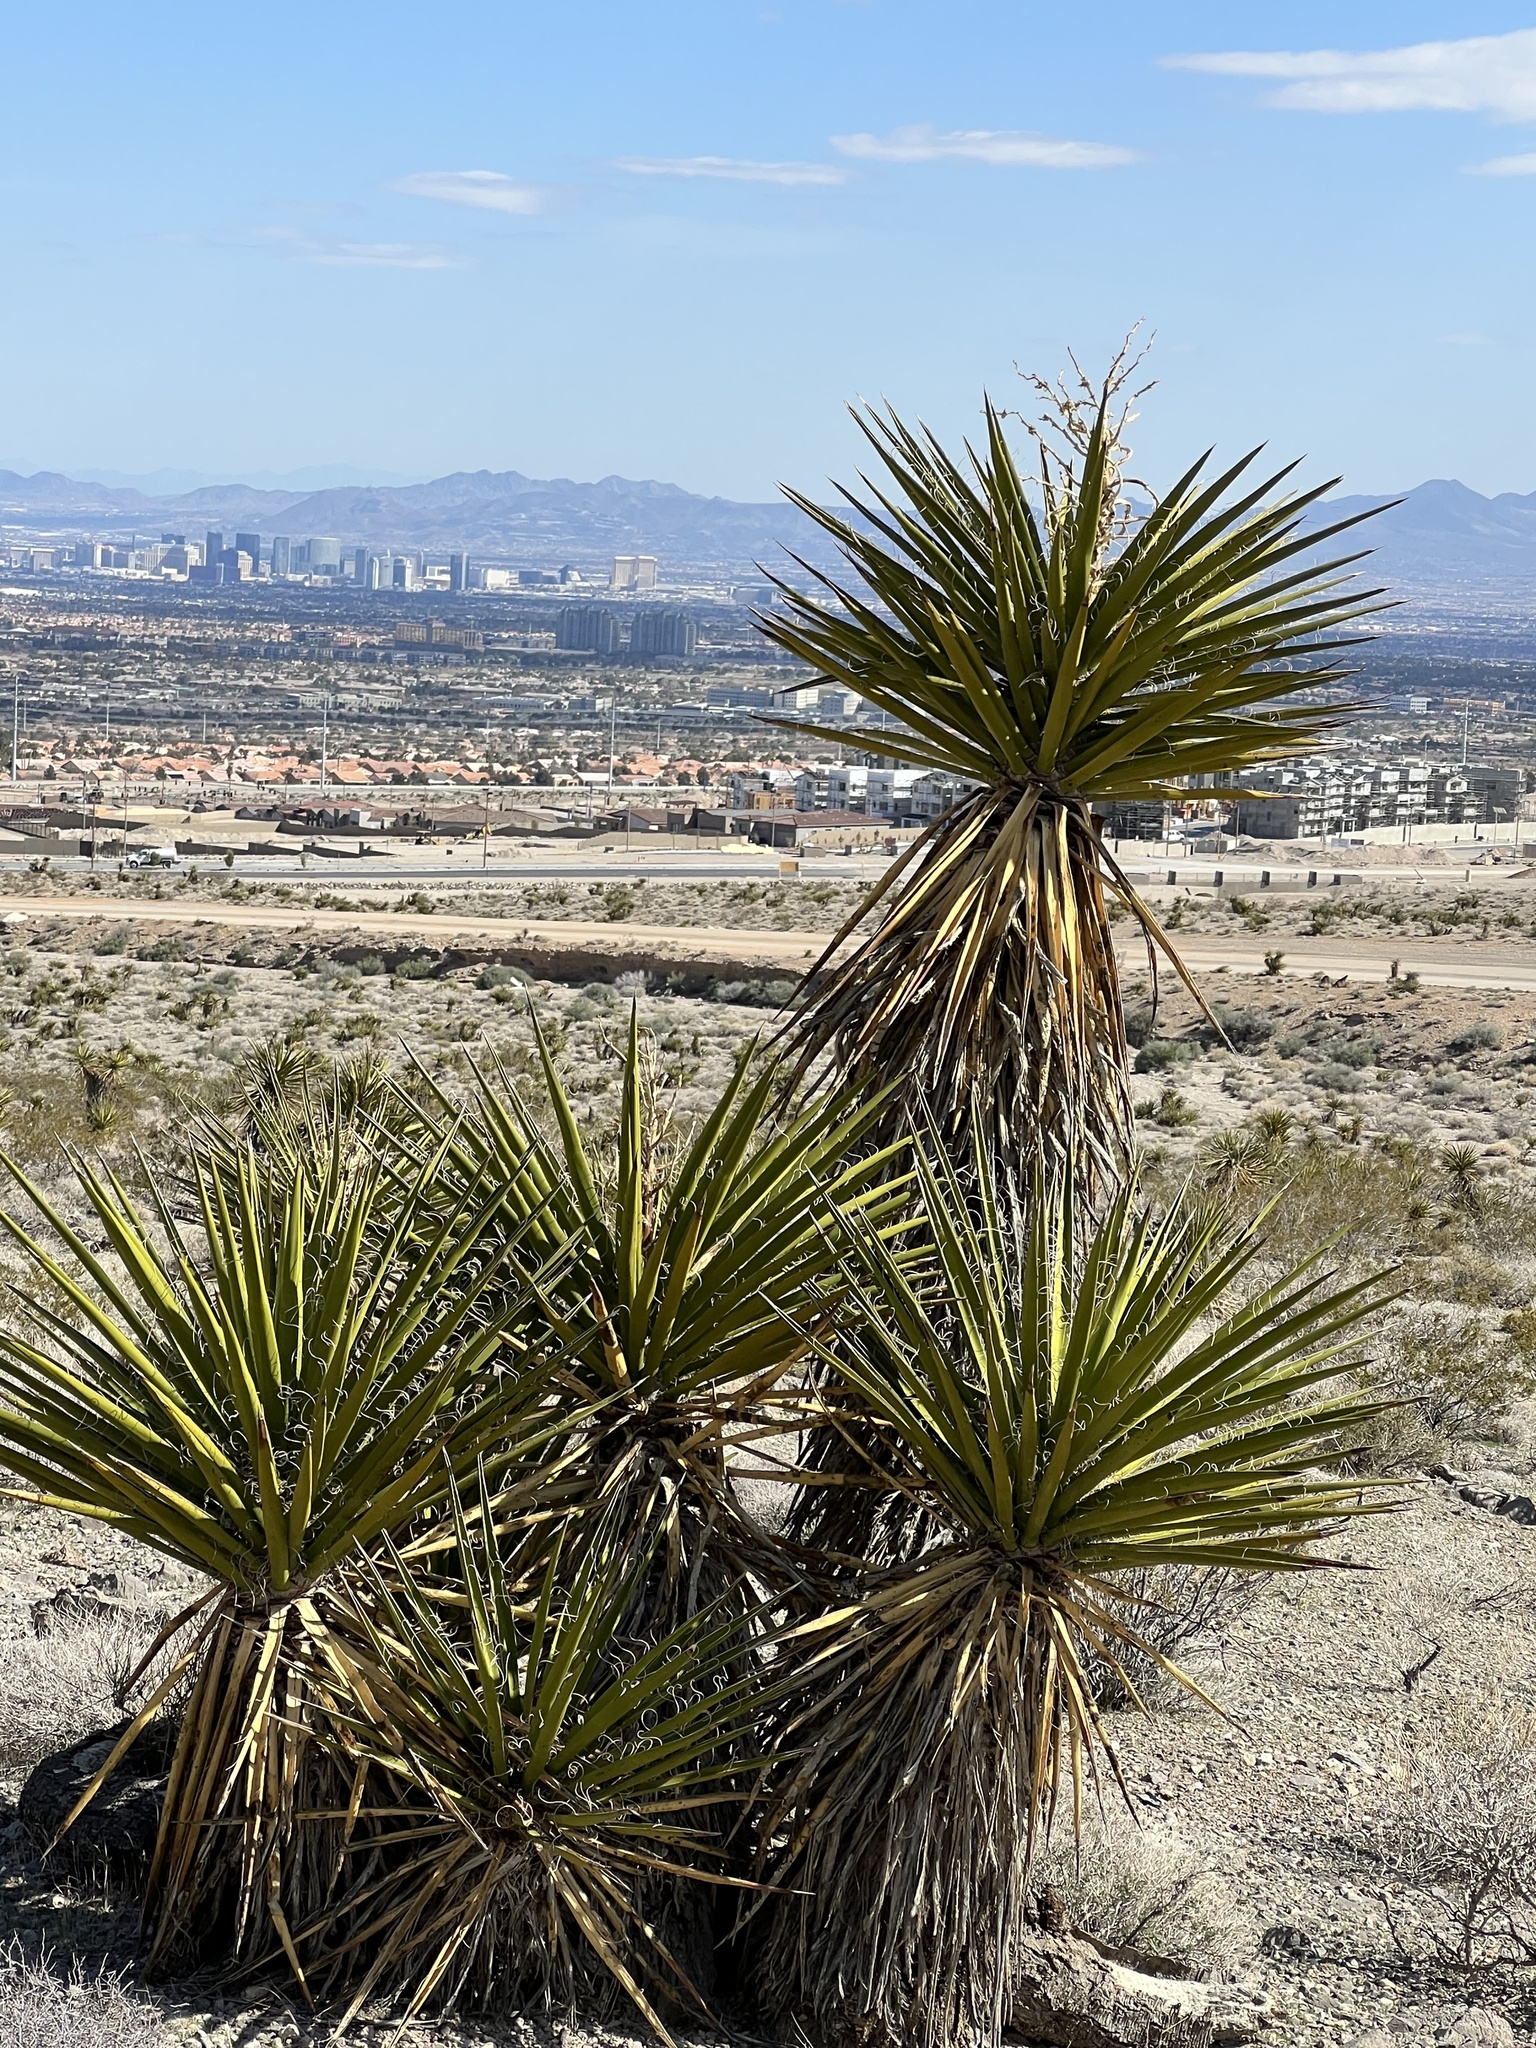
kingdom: Plantae
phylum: Tracheophyta
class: Liliopsida
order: Asparagales
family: Asparagaceae
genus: Yucca
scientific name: Yucca schidigera
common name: Mojave yucca
